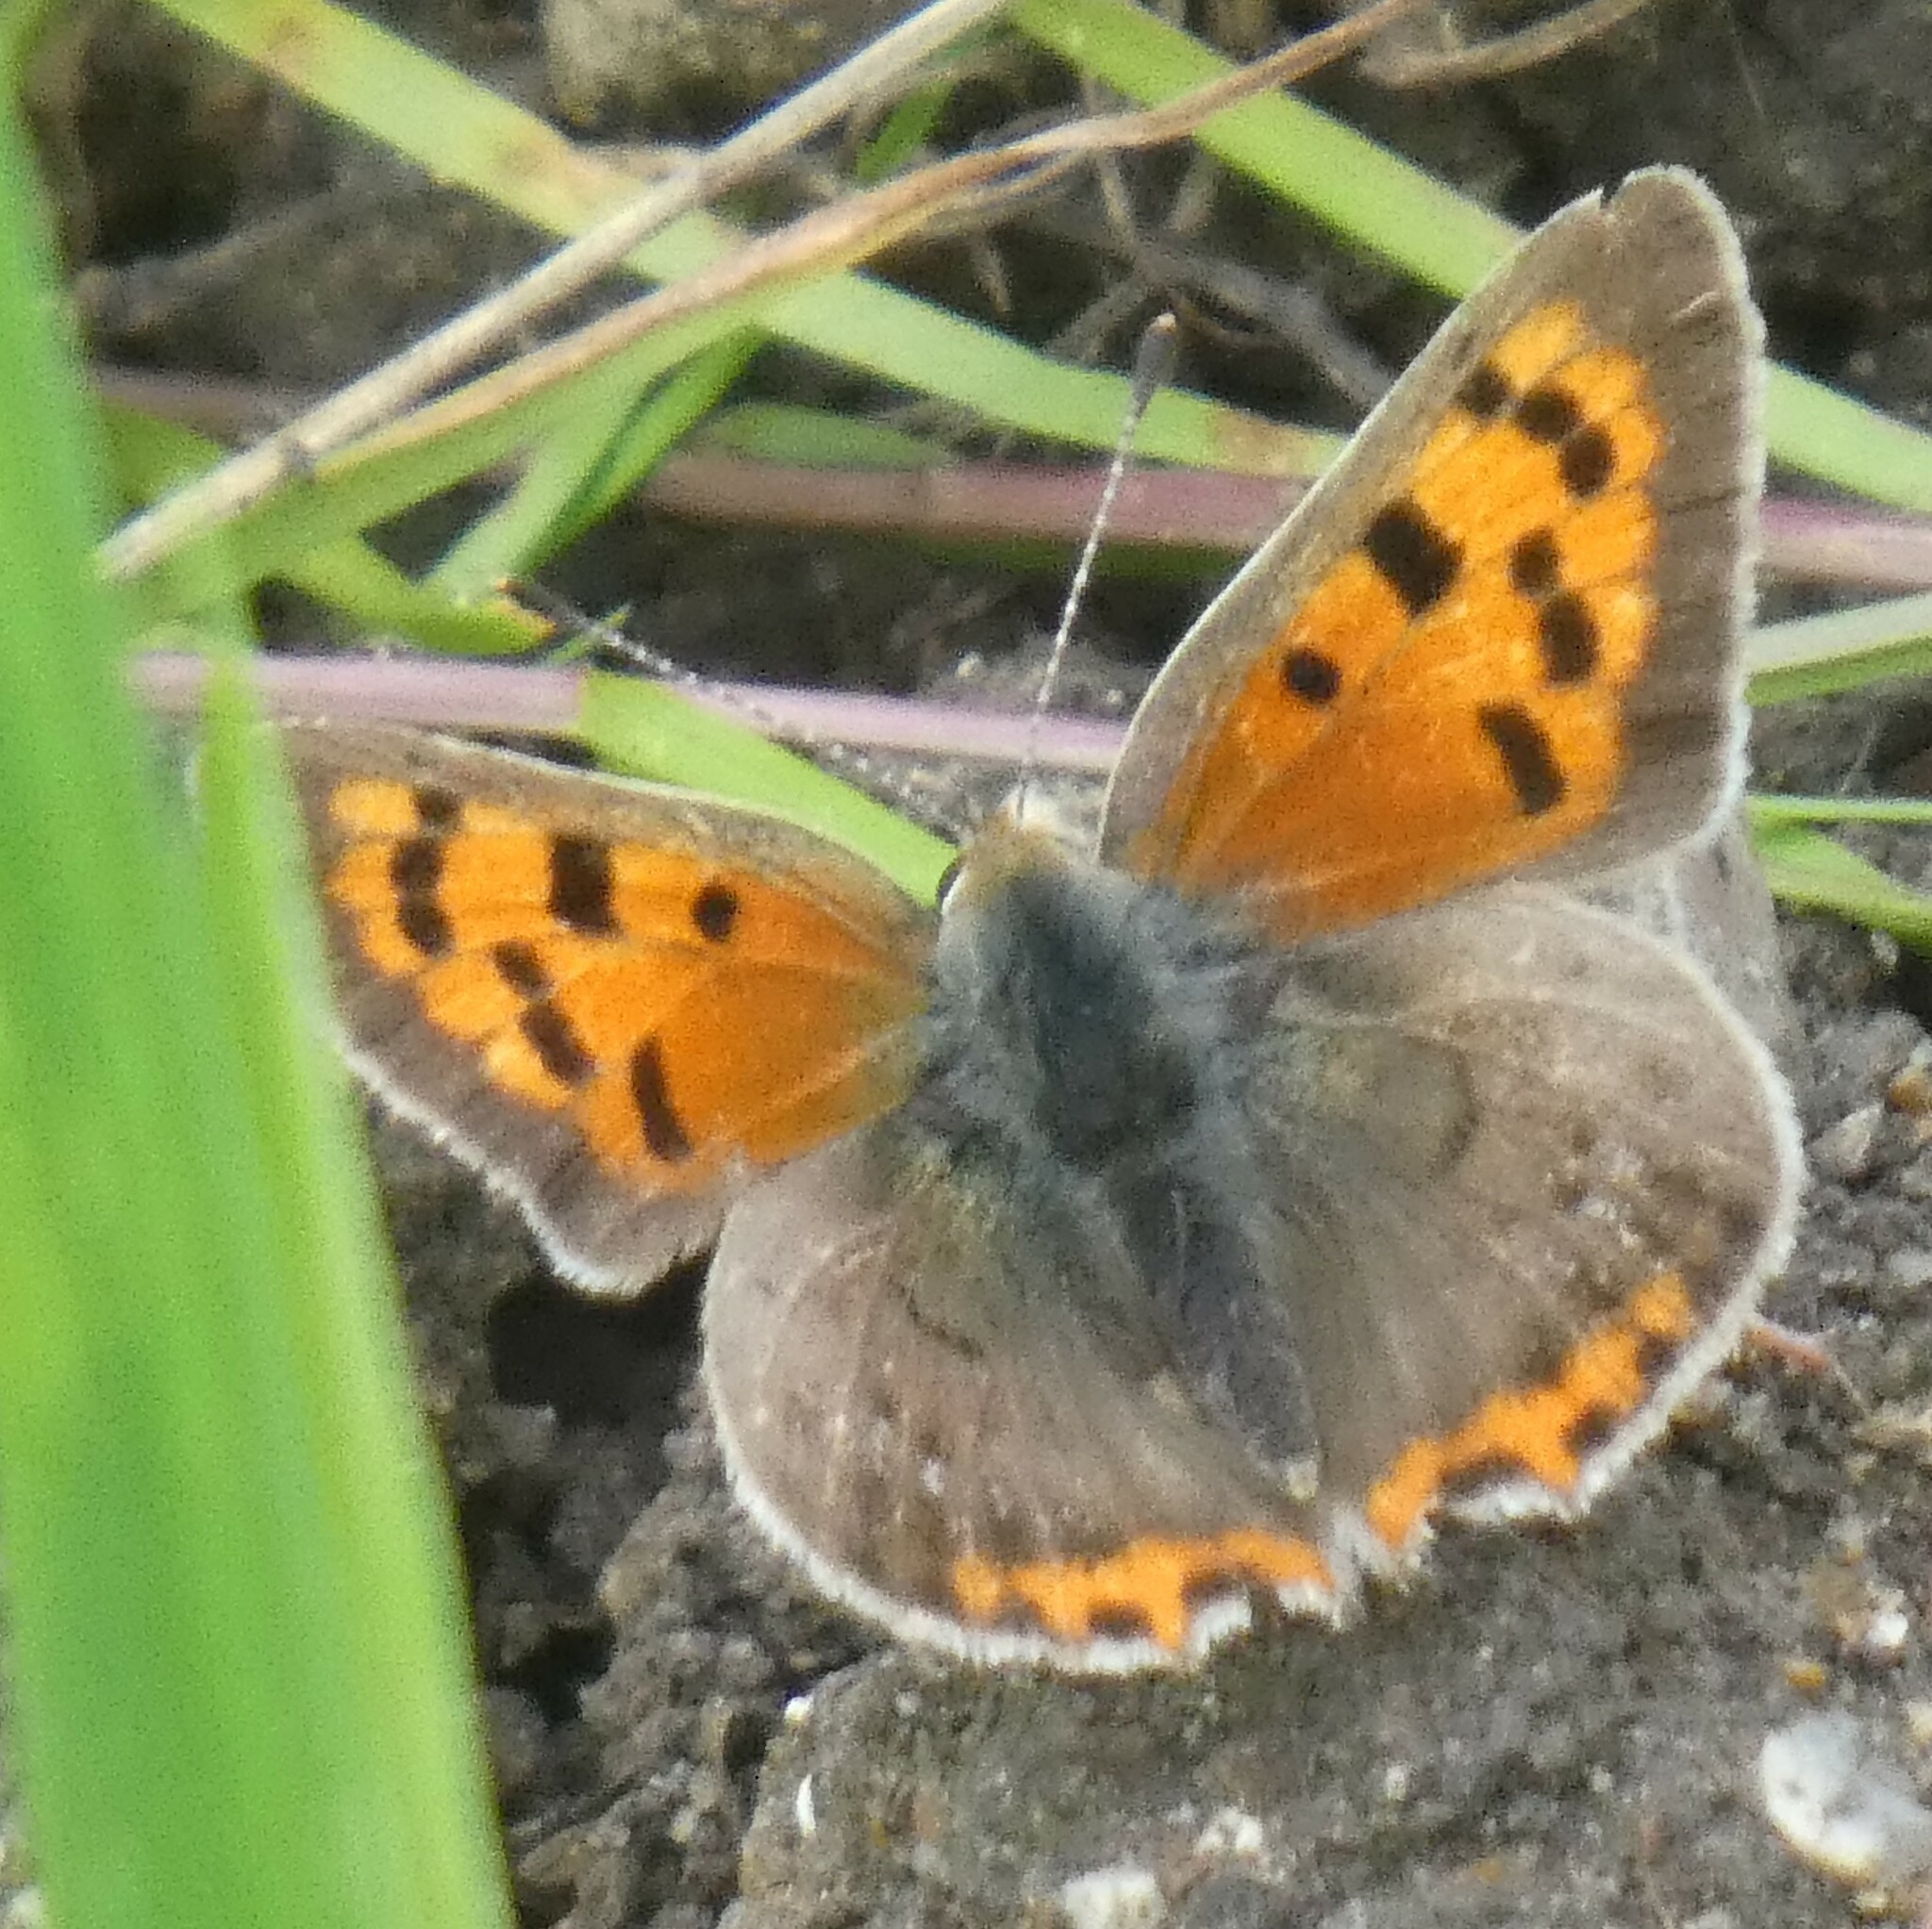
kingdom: Animalia
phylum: Arthropoda
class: Insecta
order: Lepidoptera
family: Lycaenidae
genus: Lycaena
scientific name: Lycaena phlaeas
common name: Small copper
